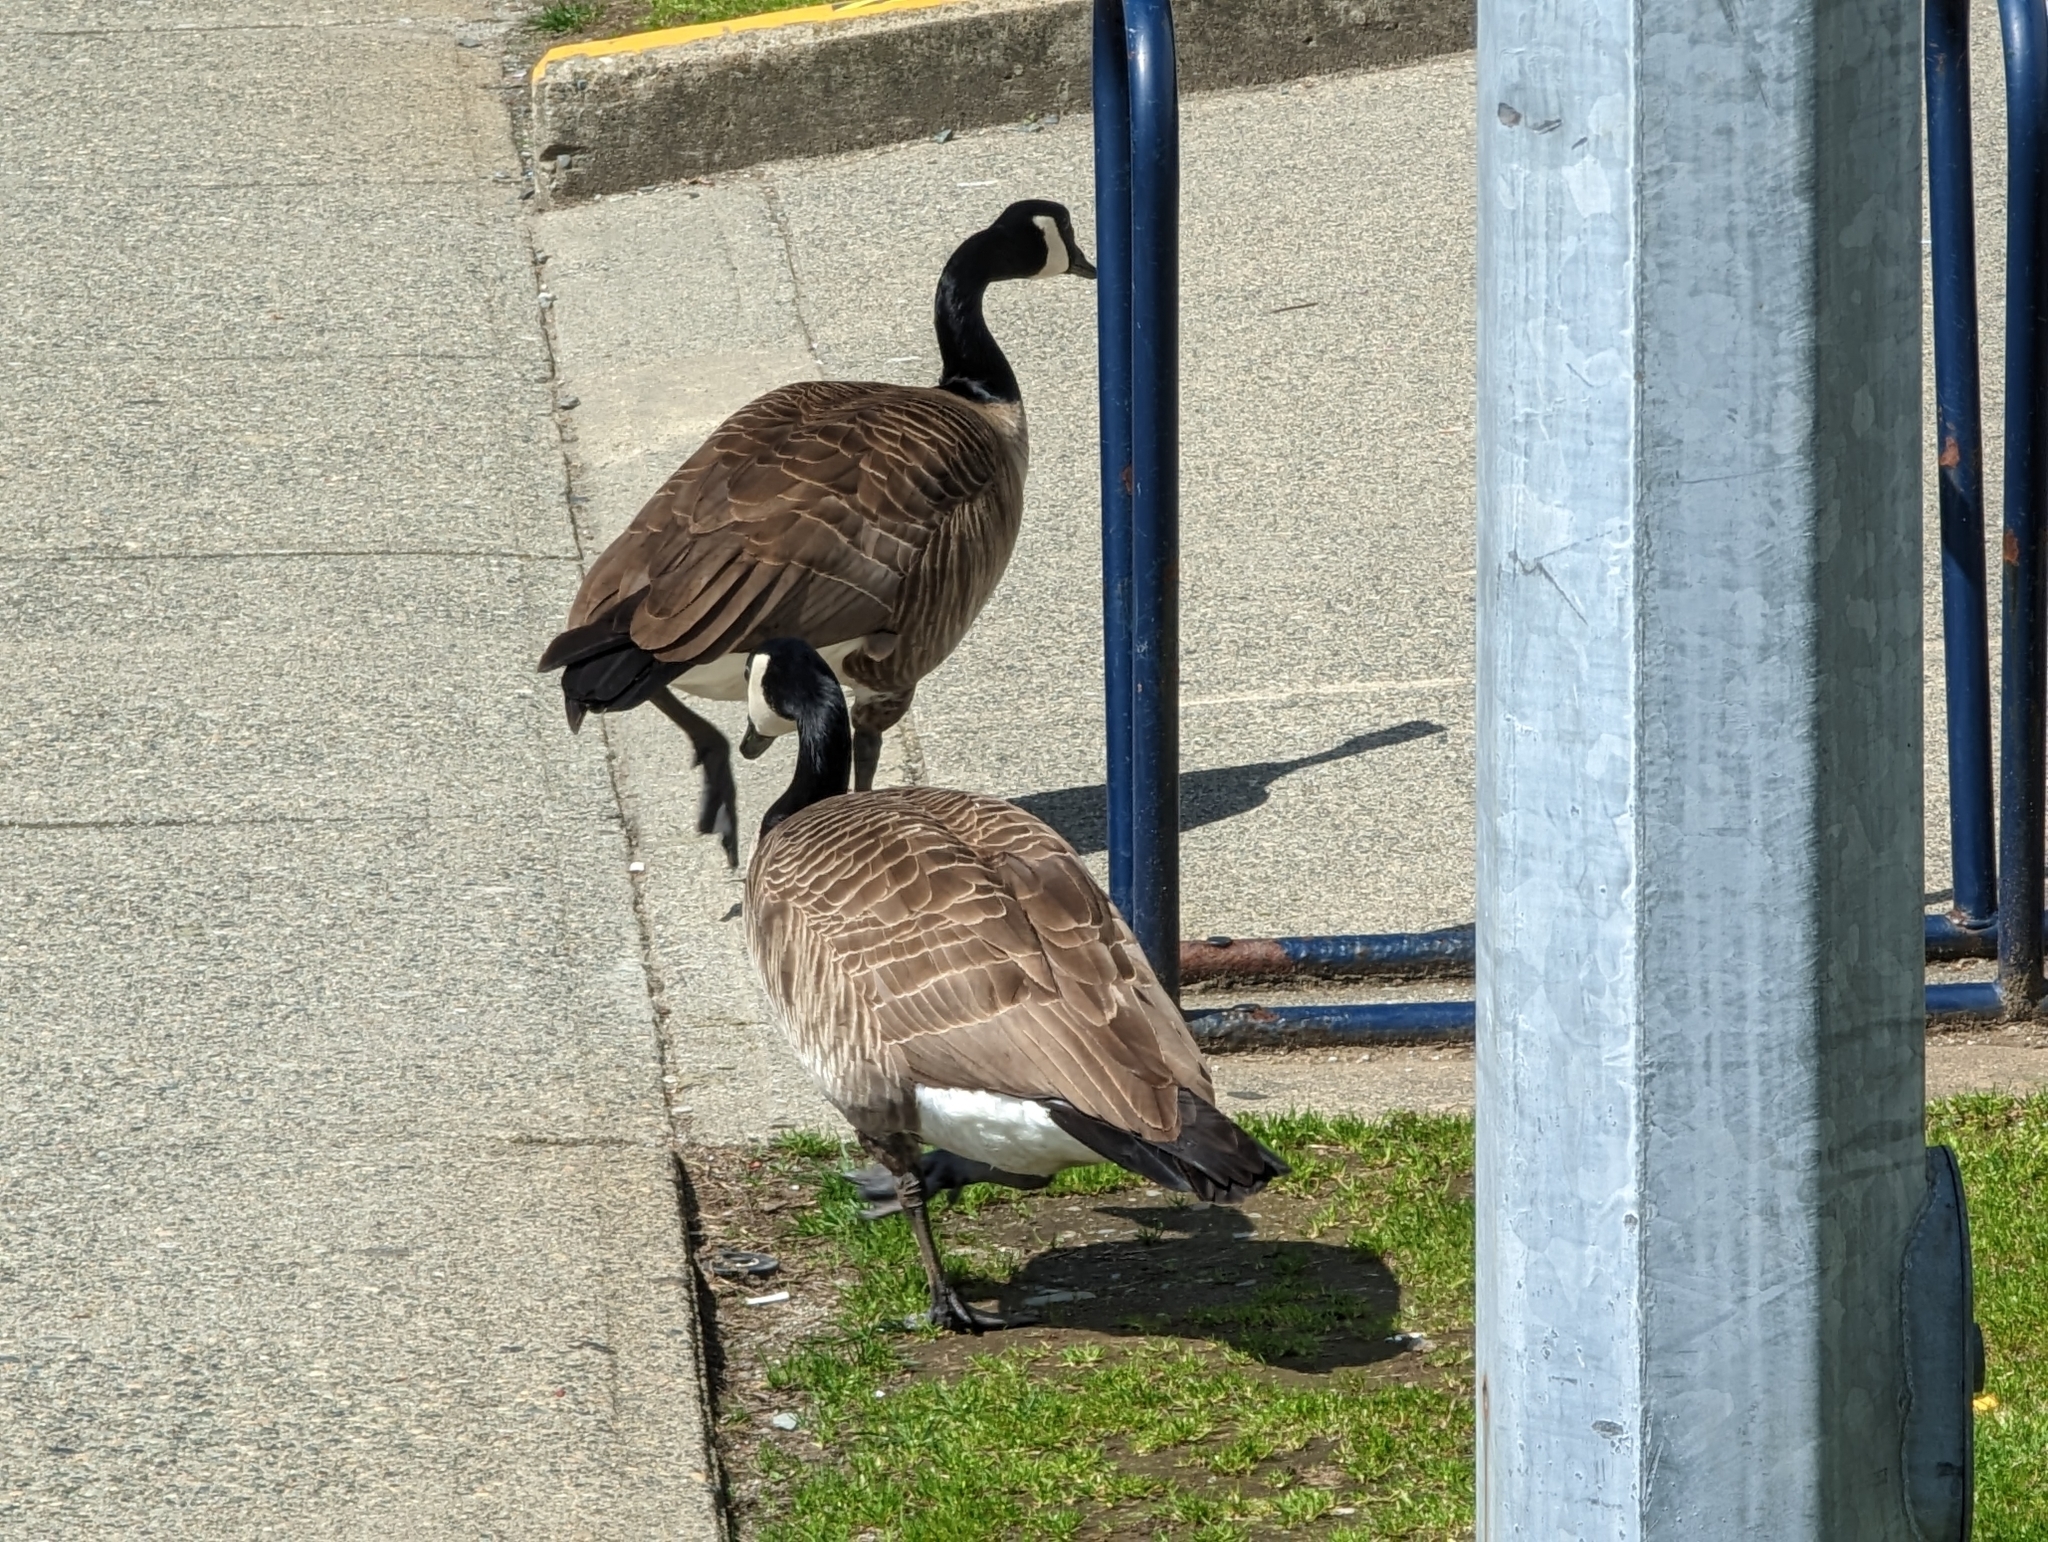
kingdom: Animalia
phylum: Chordata
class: Aves
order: Anseriformes
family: Anatidae
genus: Branta
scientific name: Branta canadensis
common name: Canada goose
